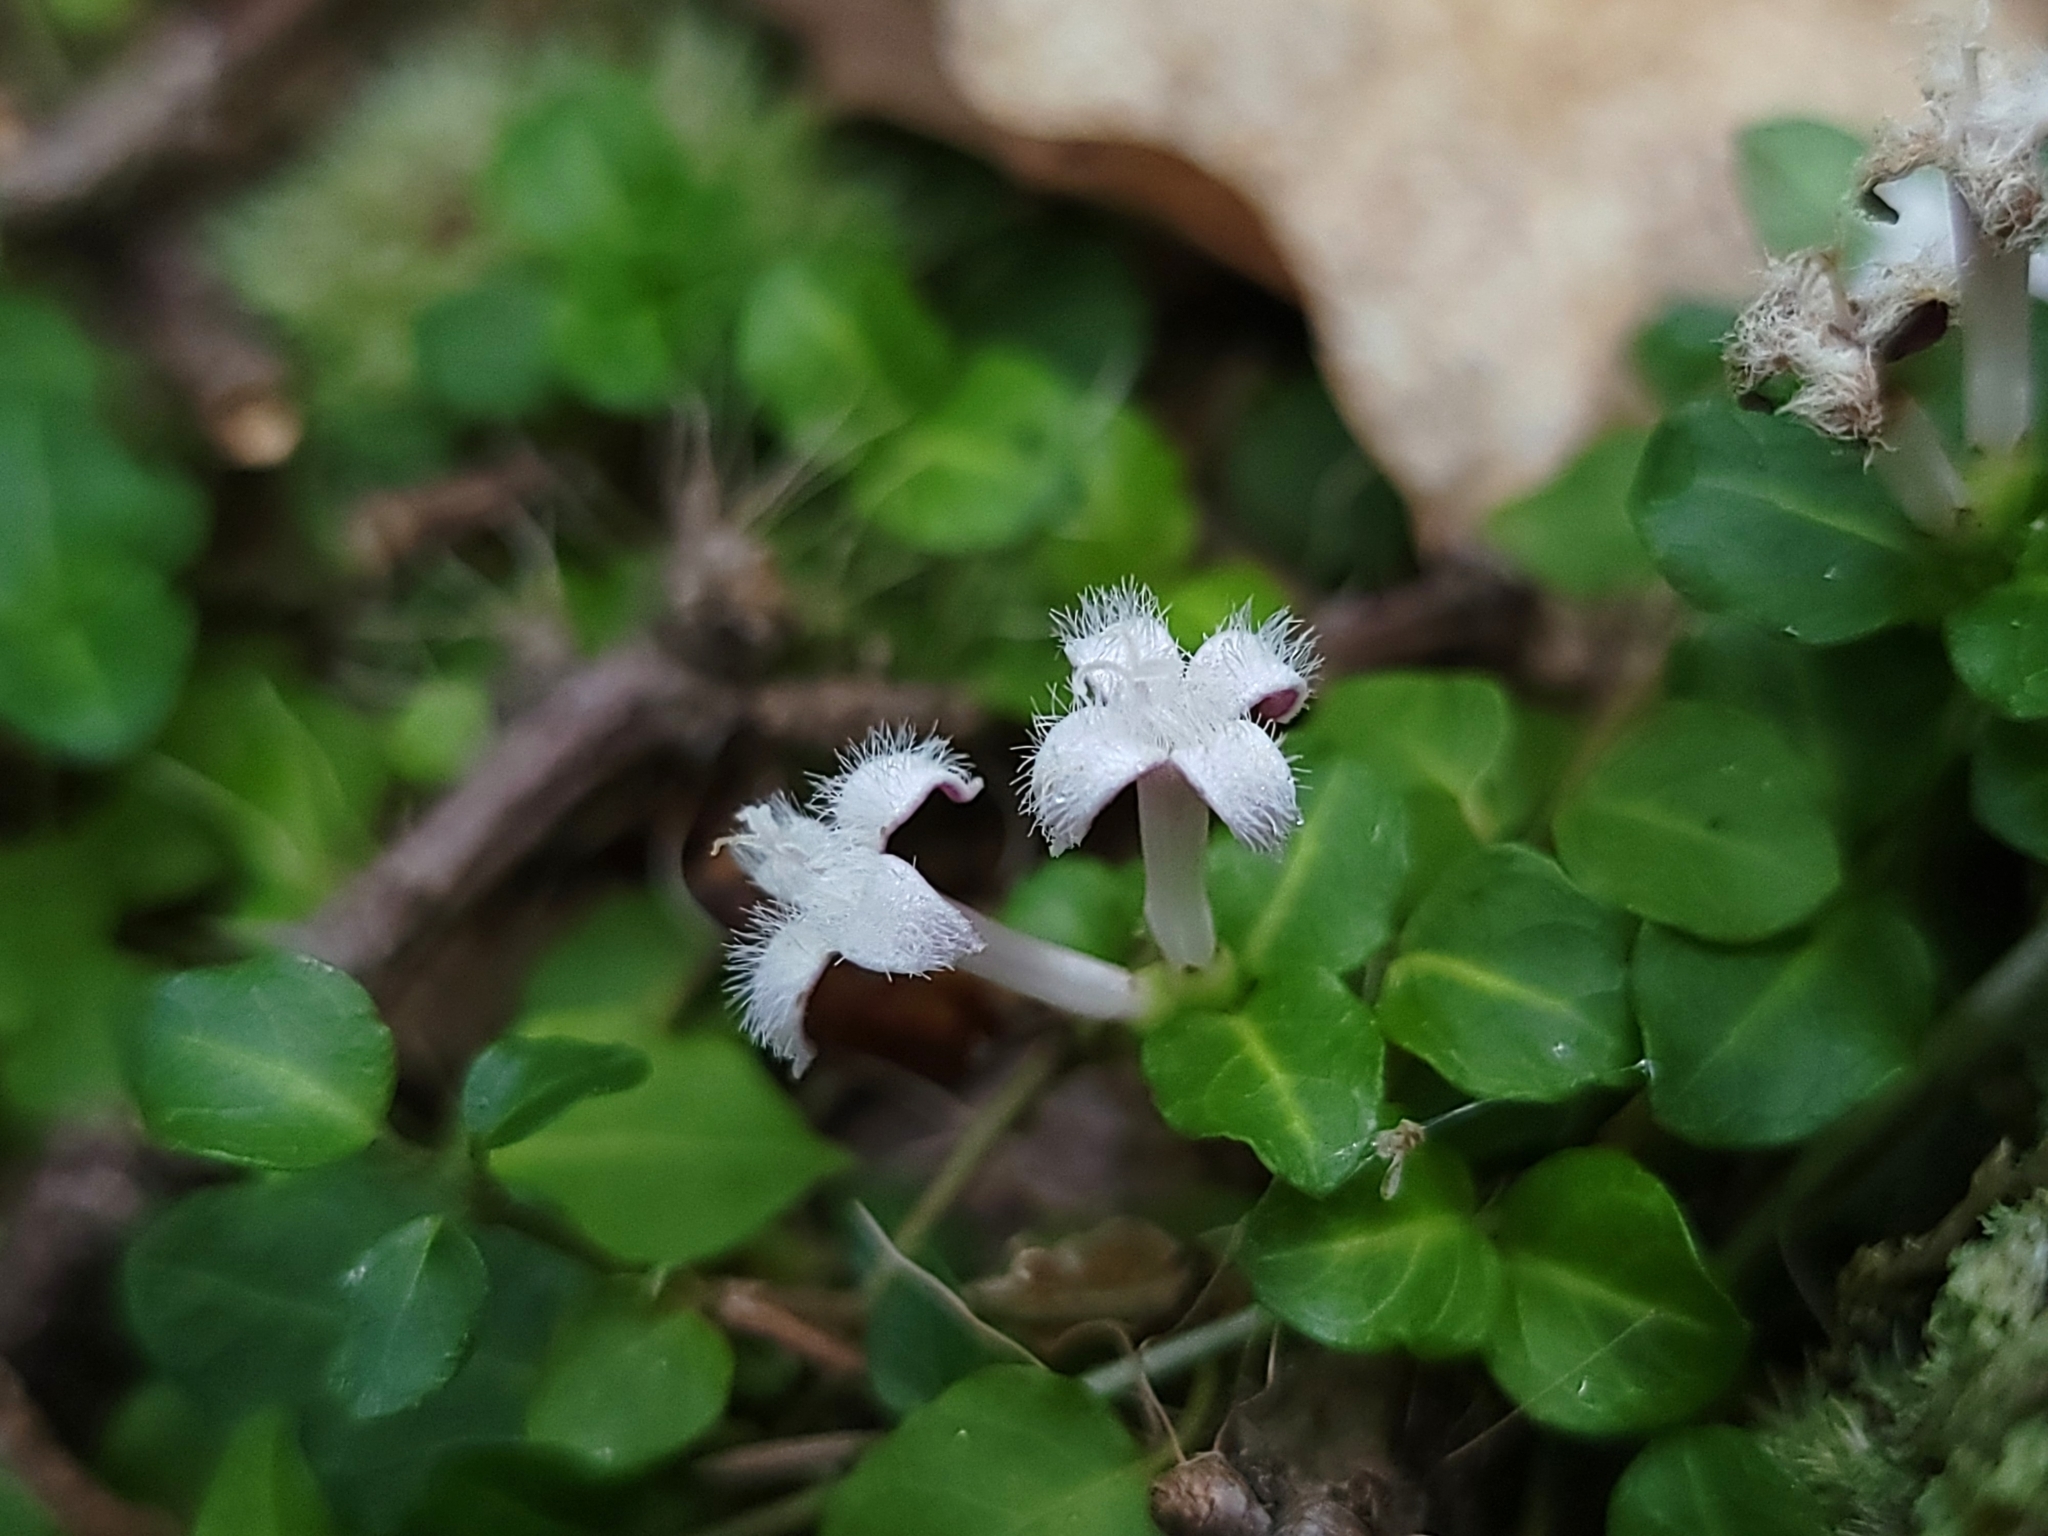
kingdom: Plantae
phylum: Tracheophyta
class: Magnoliopsida
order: Gentianales
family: Rubiaceae
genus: Mitchella
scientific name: Mitchella repens
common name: Partridge-berry
